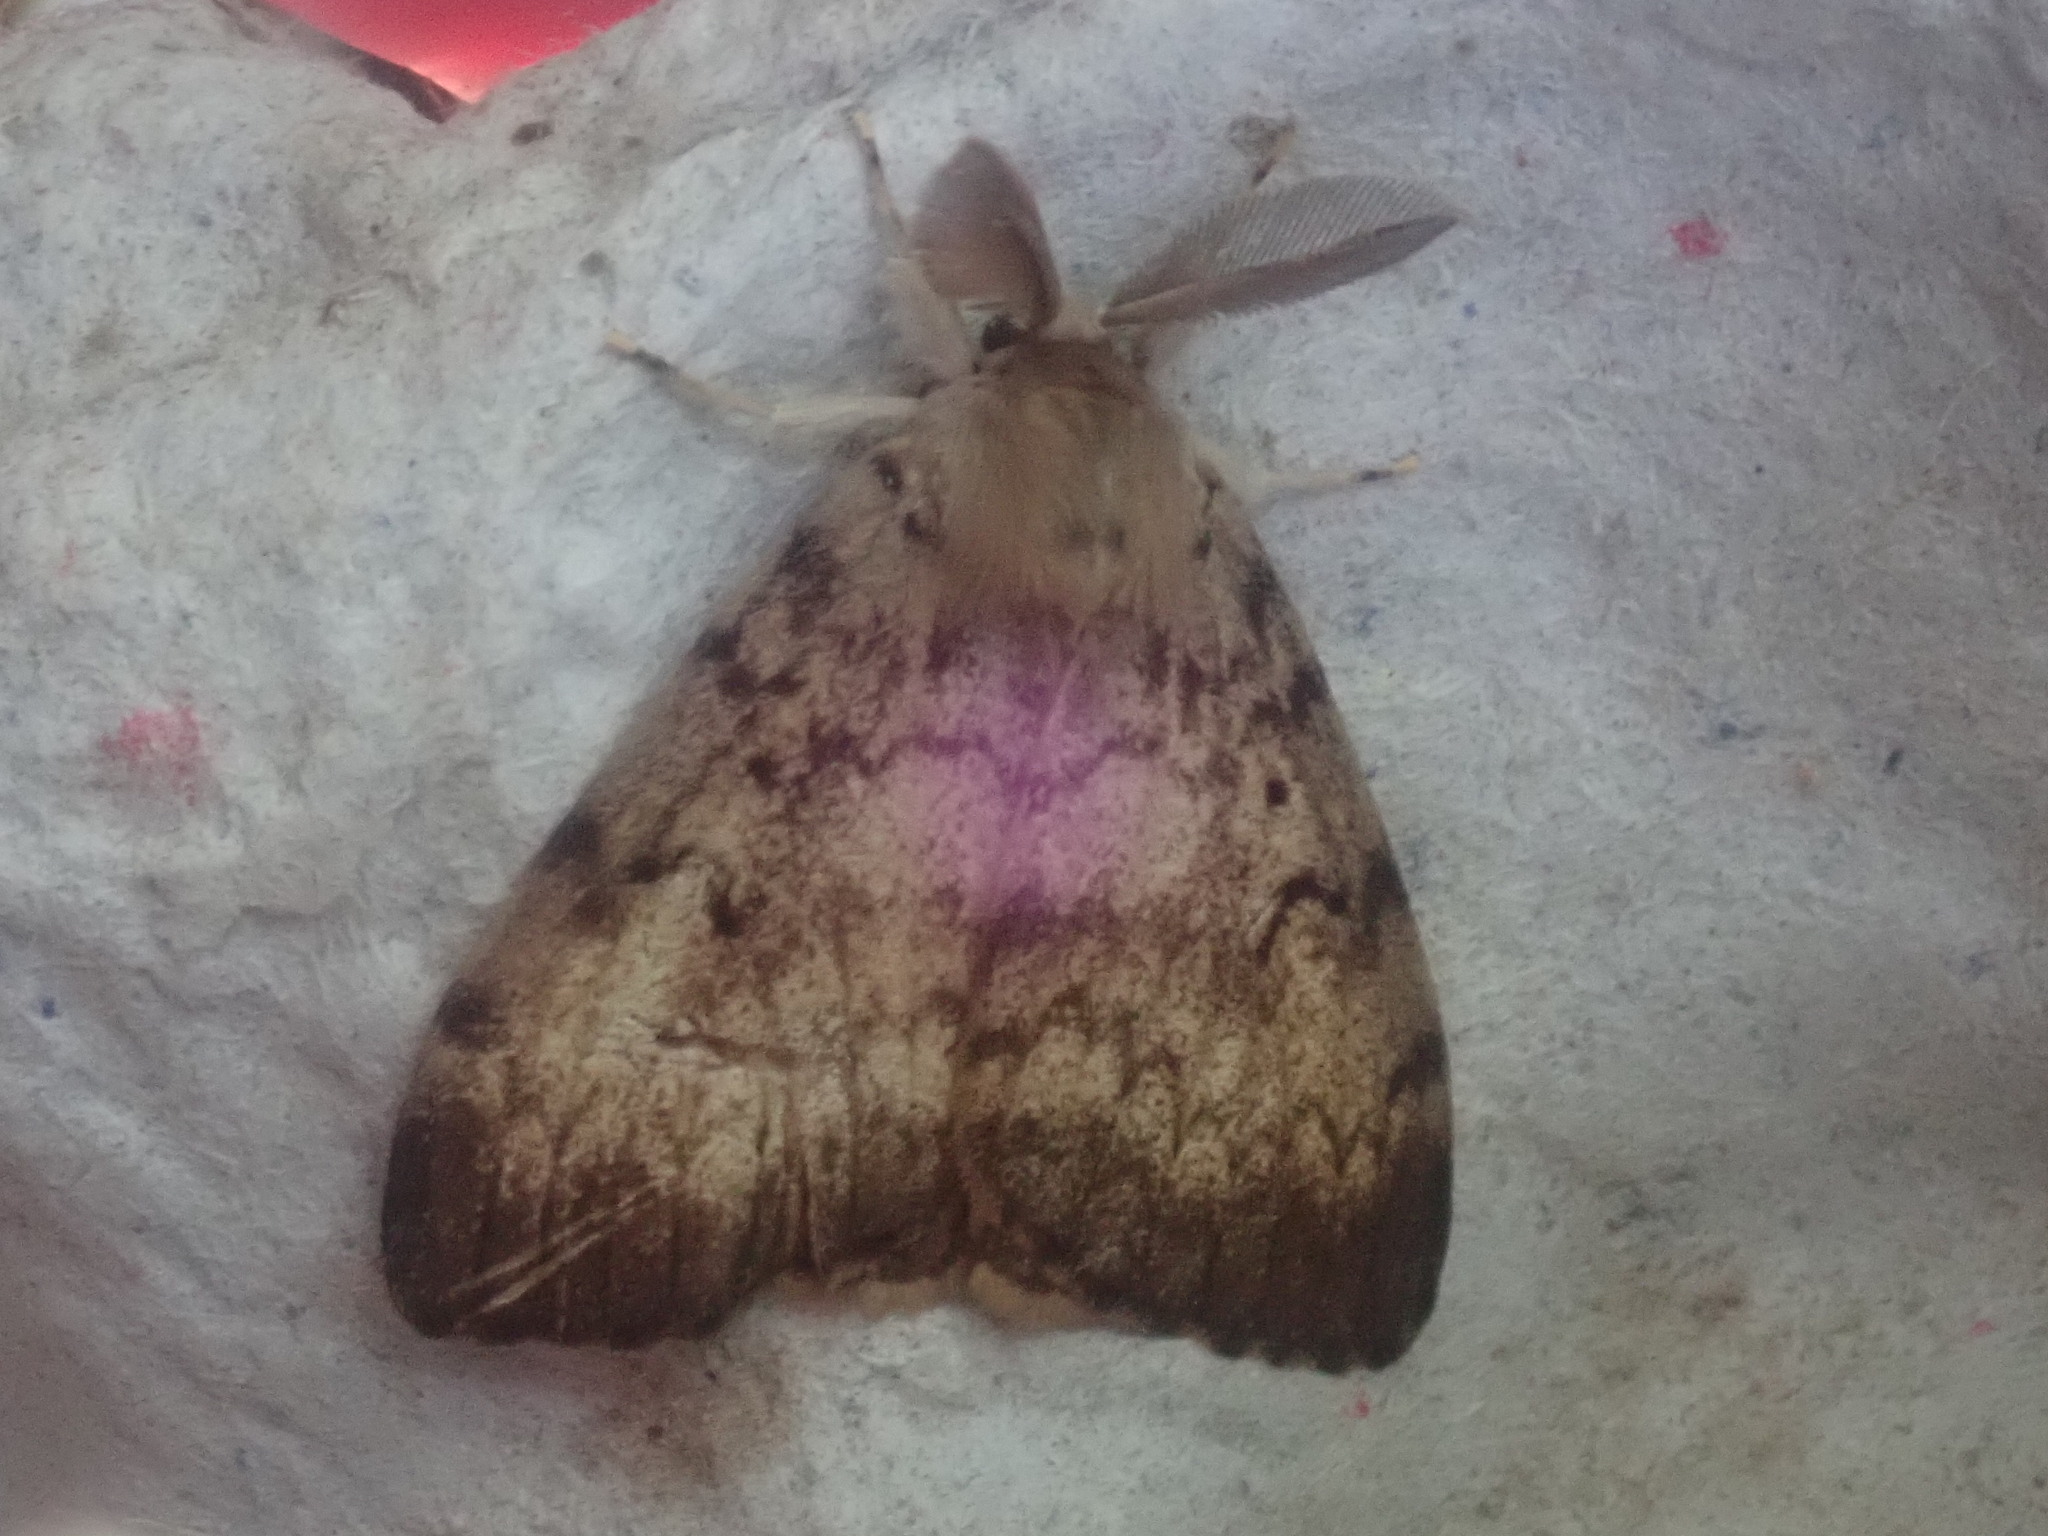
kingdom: Animalia
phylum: Arthropoda
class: Insecta
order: Lepidoptera
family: Erebidae
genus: Lymantria
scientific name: Lymantria dispar
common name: Gypsy moth
